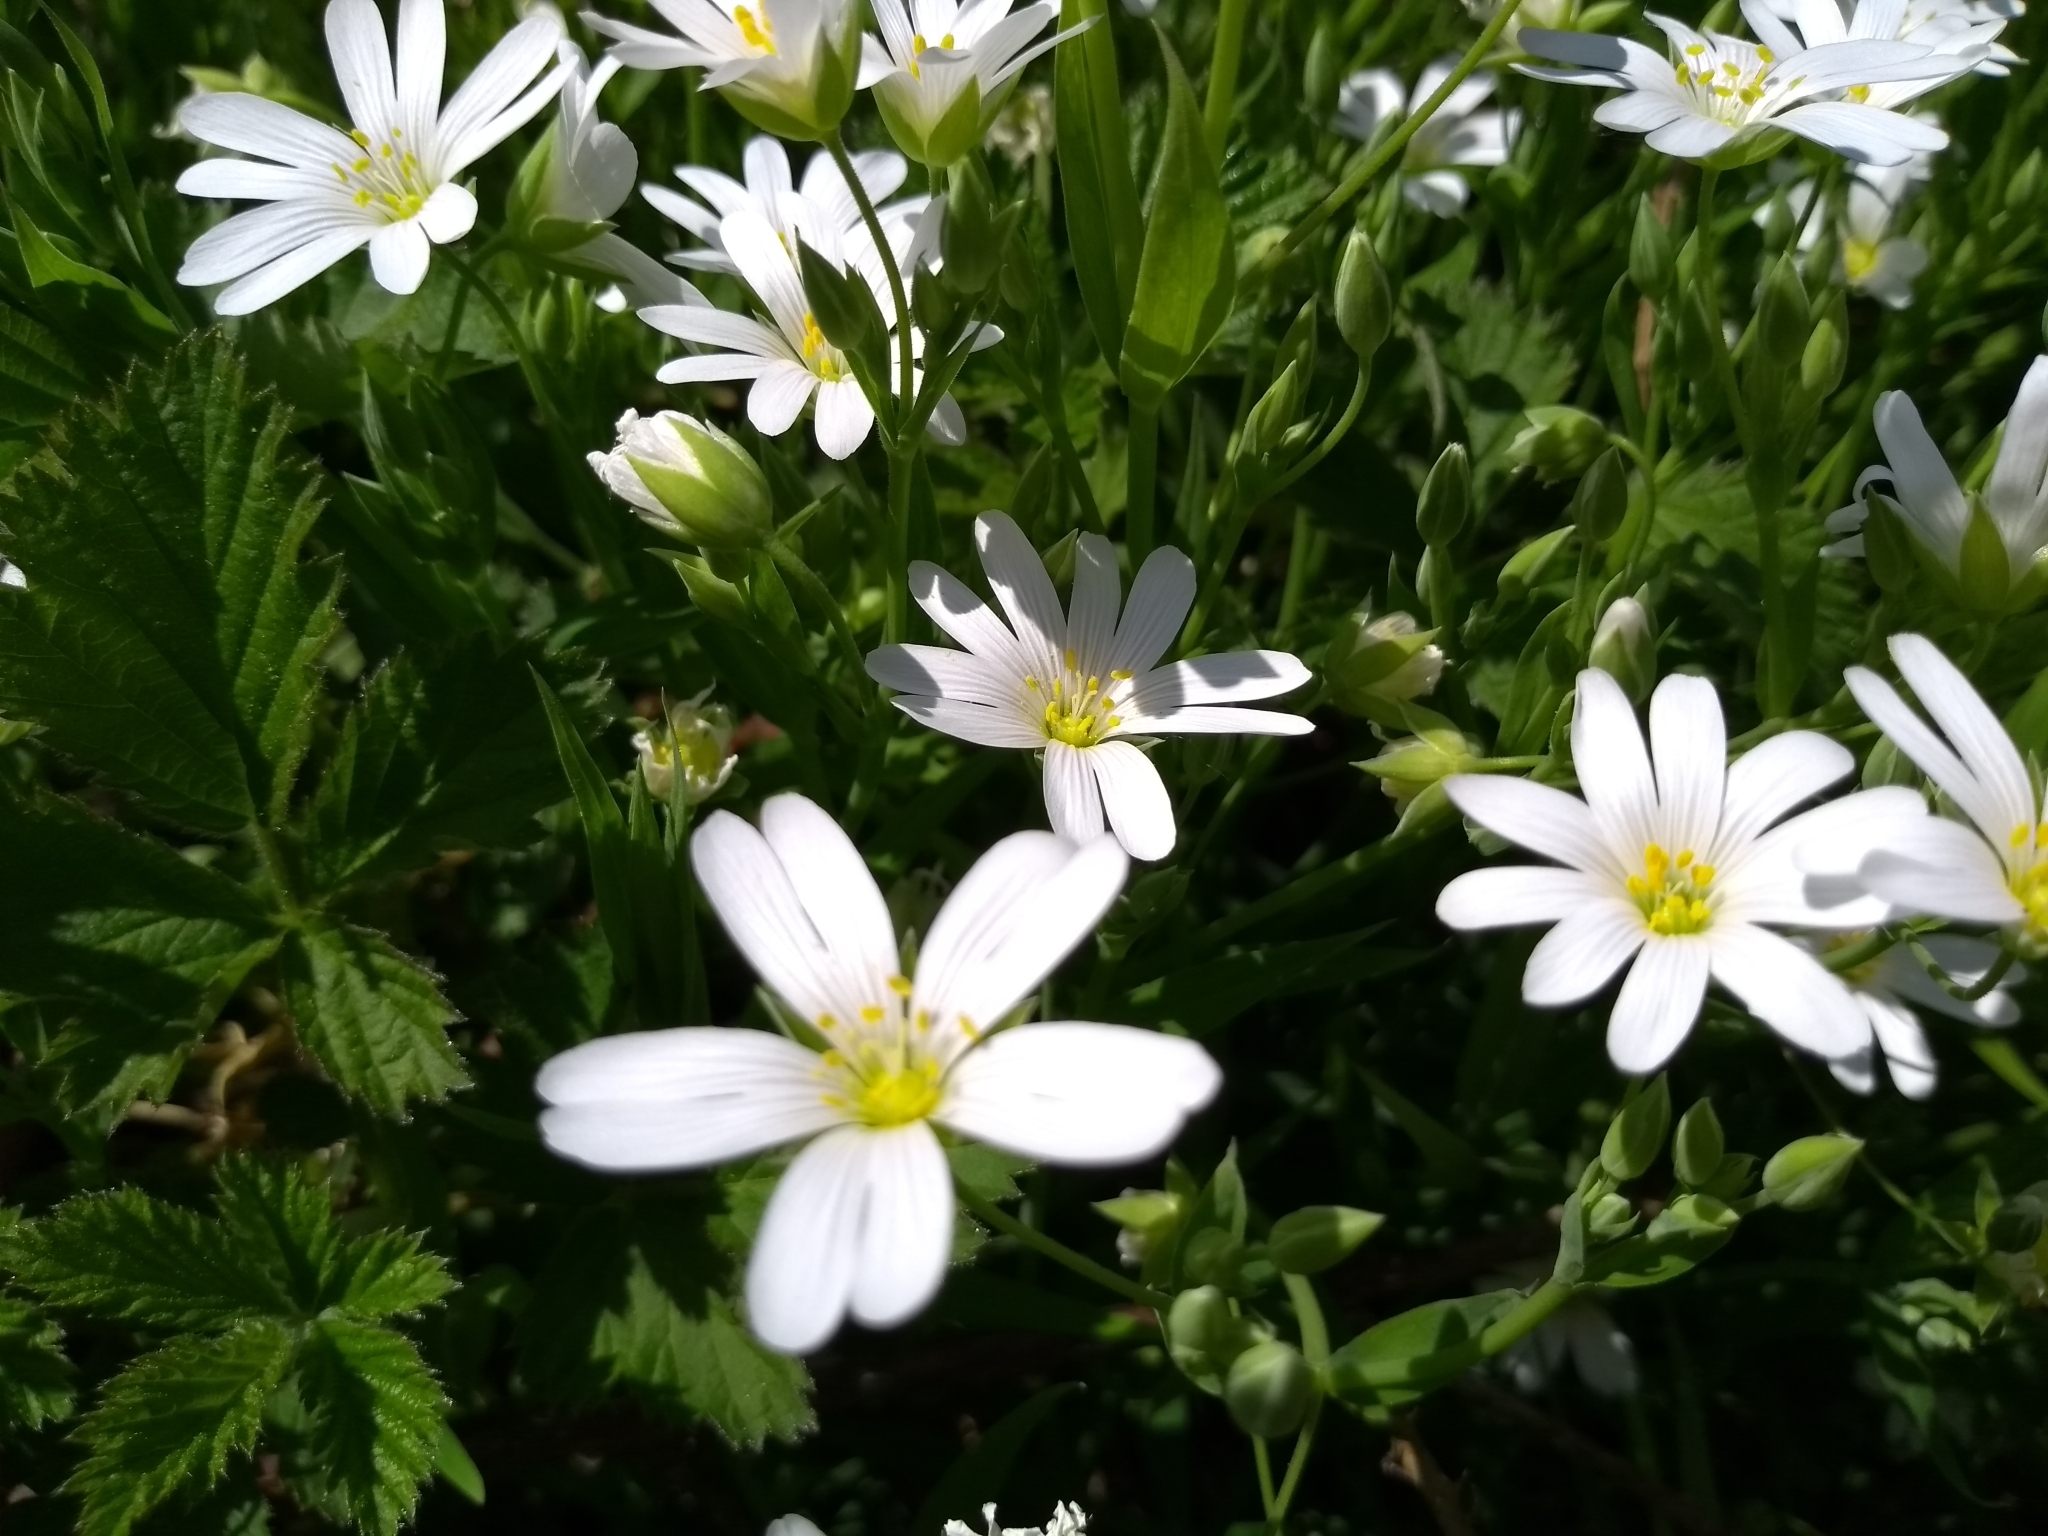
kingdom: Plantae
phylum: Tracheophyta
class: Magnoliopsida
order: Caryophyllales
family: Caryophyllaceae
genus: Rabelera
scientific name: Rabelera holostea
